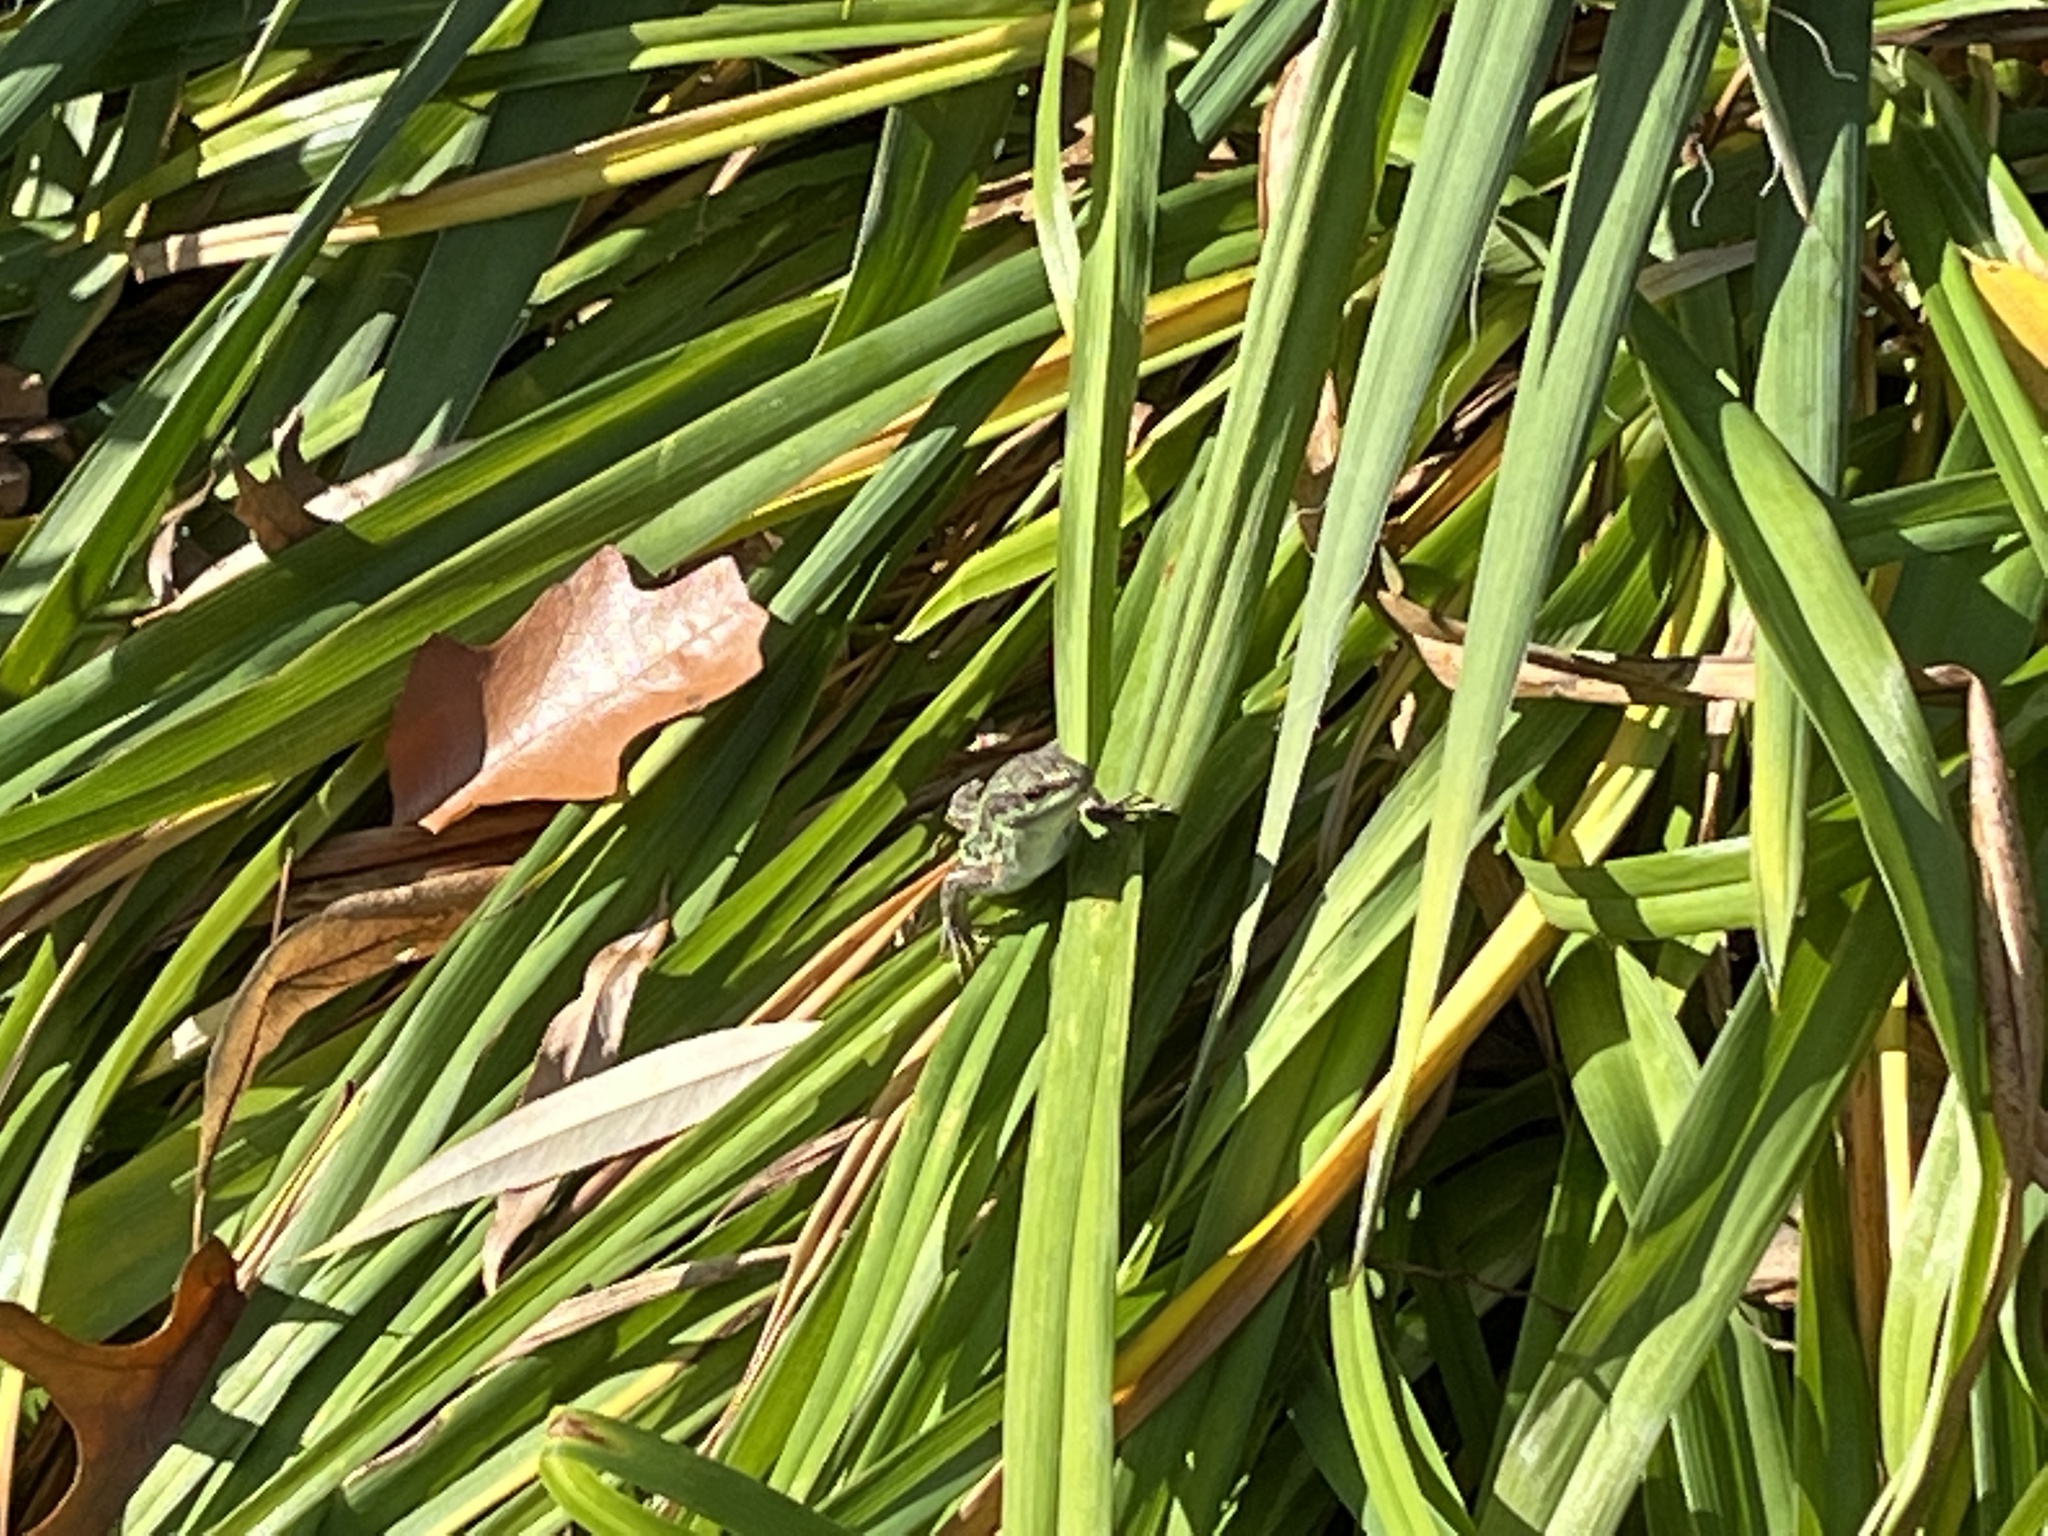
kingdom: Animalia
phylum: Chordata
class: Squamata
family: Lacertidae
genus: Podarcis
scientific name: Podarcis siculus
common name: Italian wall lizard
